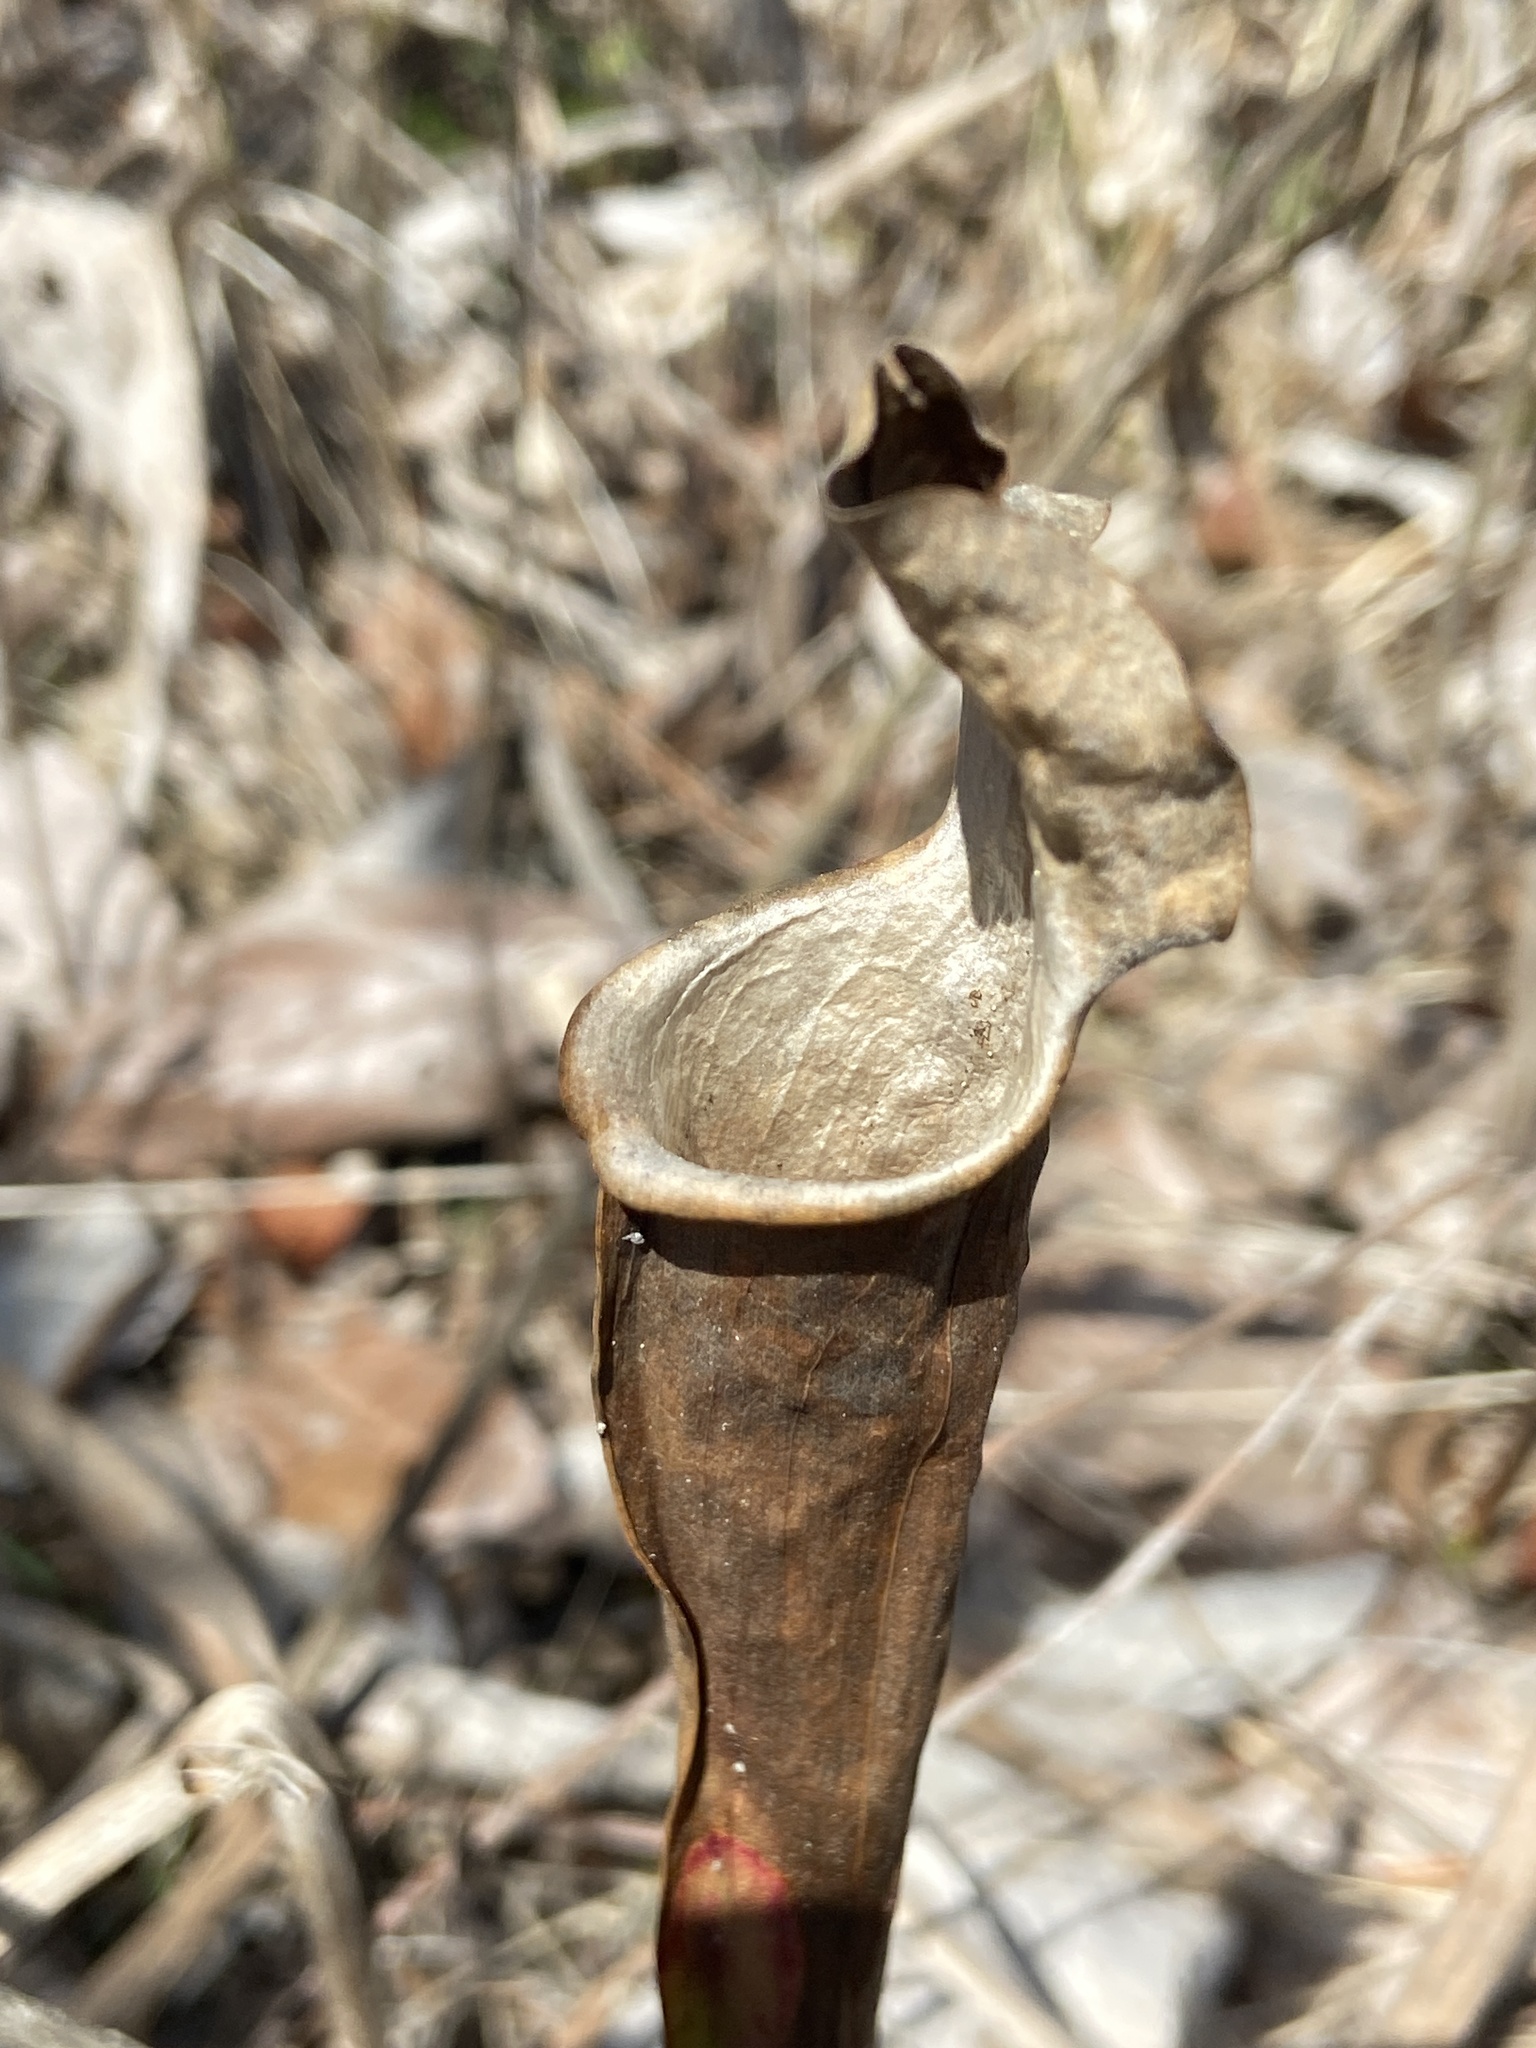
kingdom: Plantae
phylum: Tracheophyta
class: Magnoliopsida
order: Ericales
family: Sarraceniaceae
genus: Sarracenia
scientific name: Sarracenia alata
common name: Yellow trumpets
